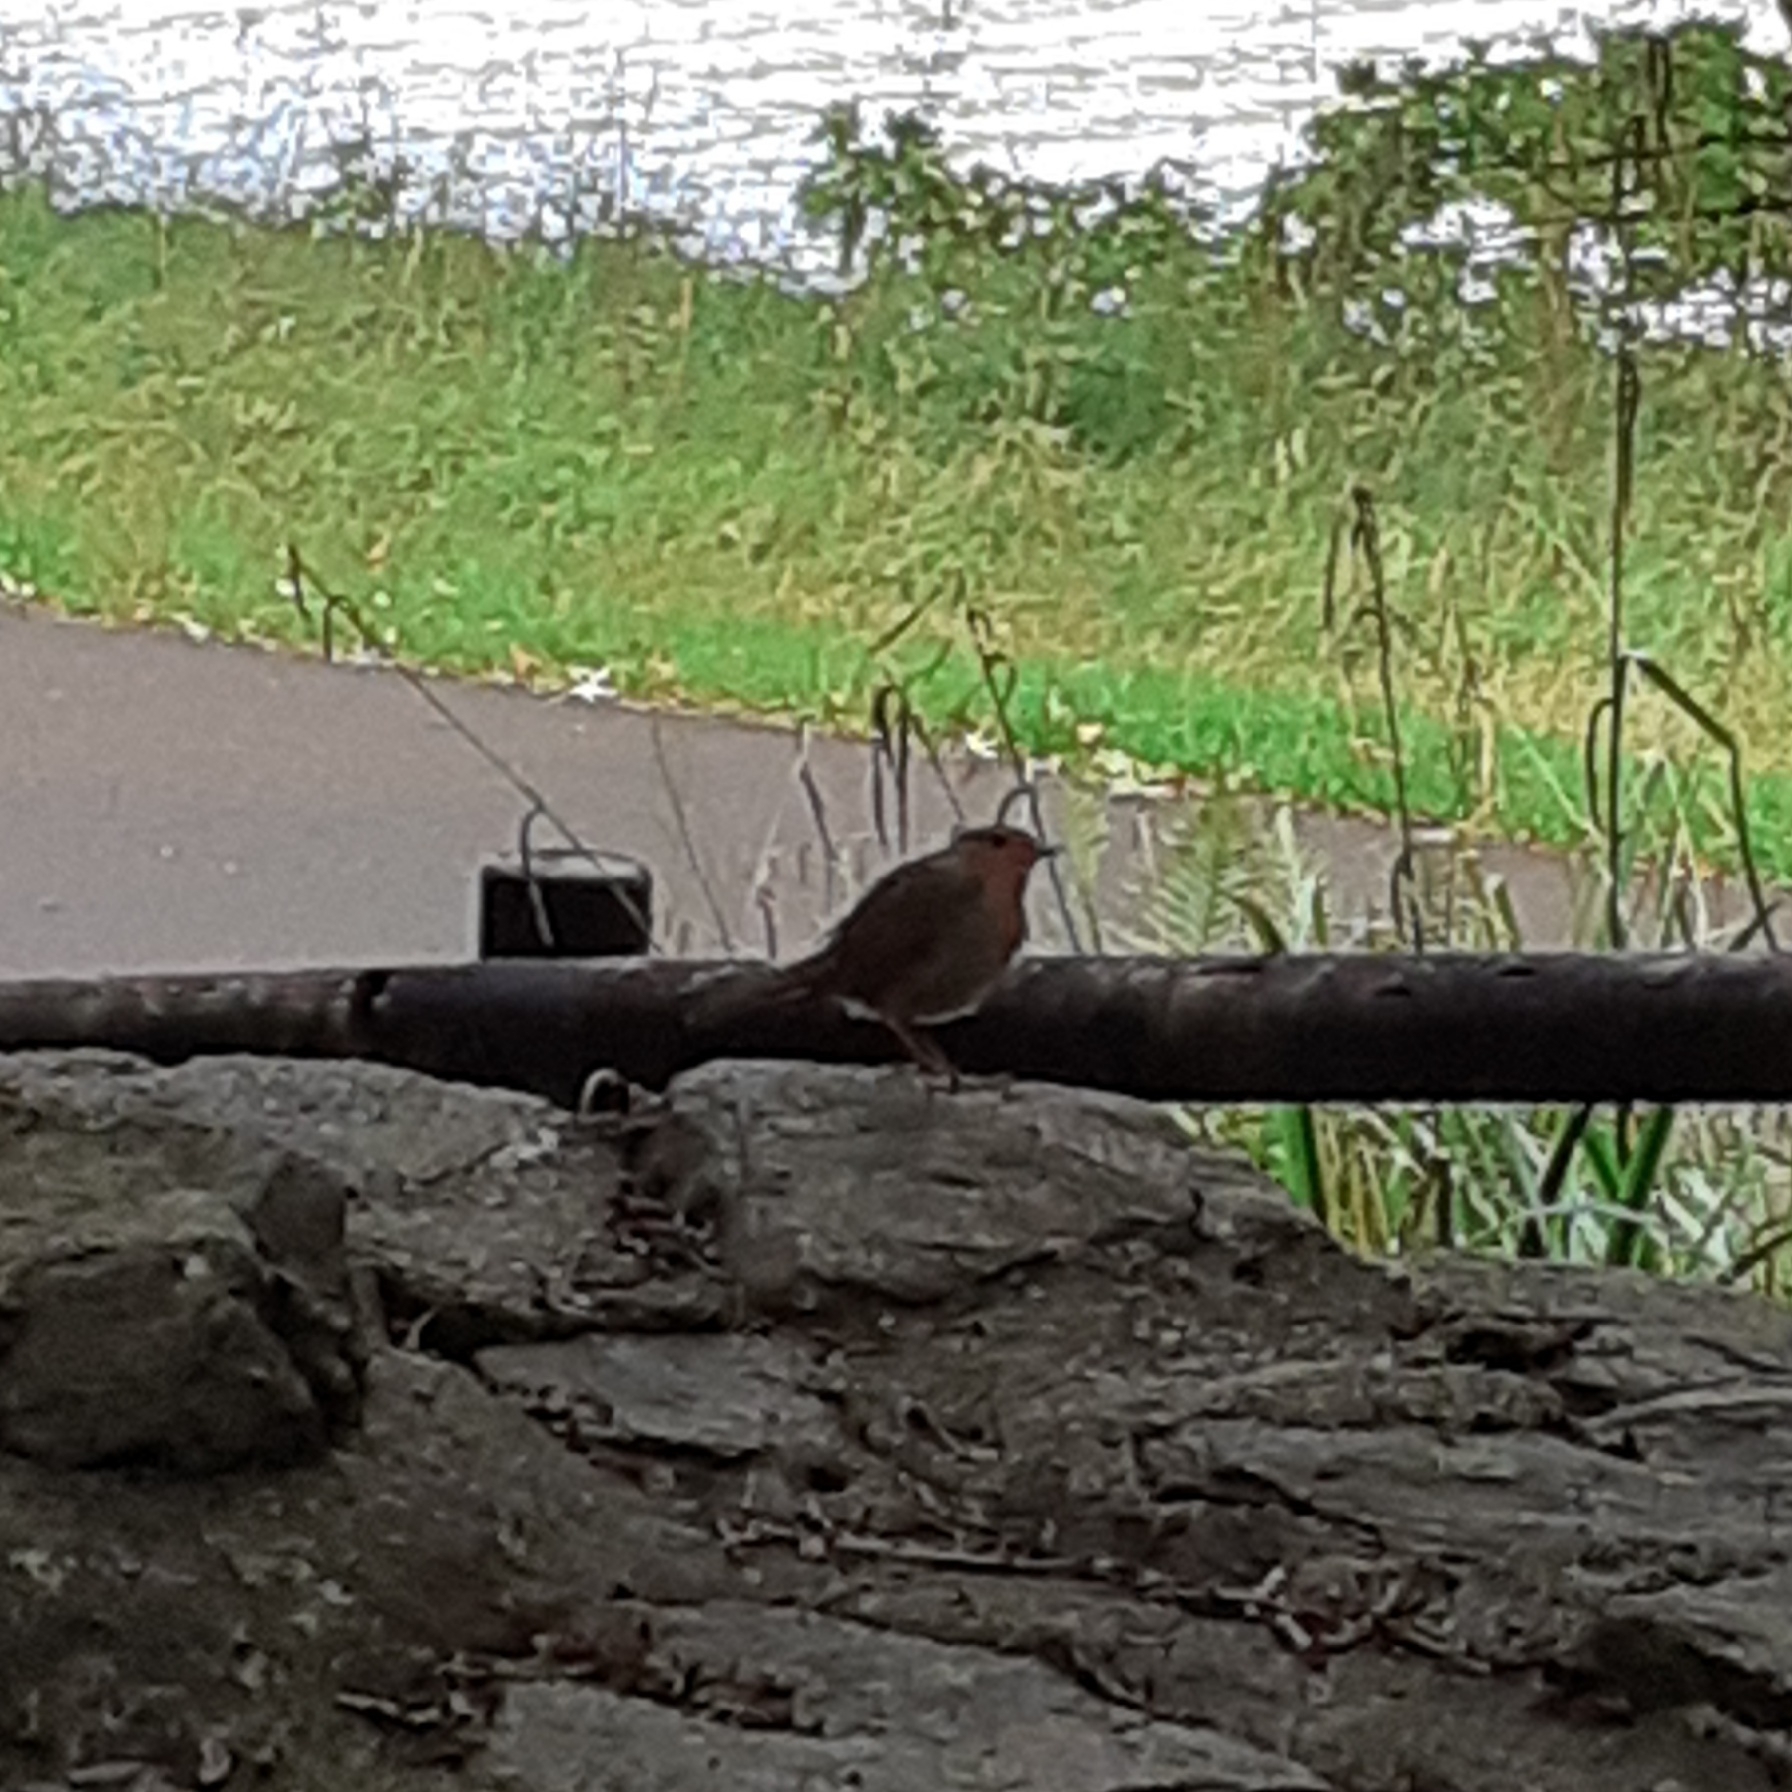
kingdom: Animalia
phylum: Chordata
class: Aves
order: Passeriformes
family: Muscicapidae
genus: Erithacus
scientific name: Erithacus rubecula
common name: European robin
